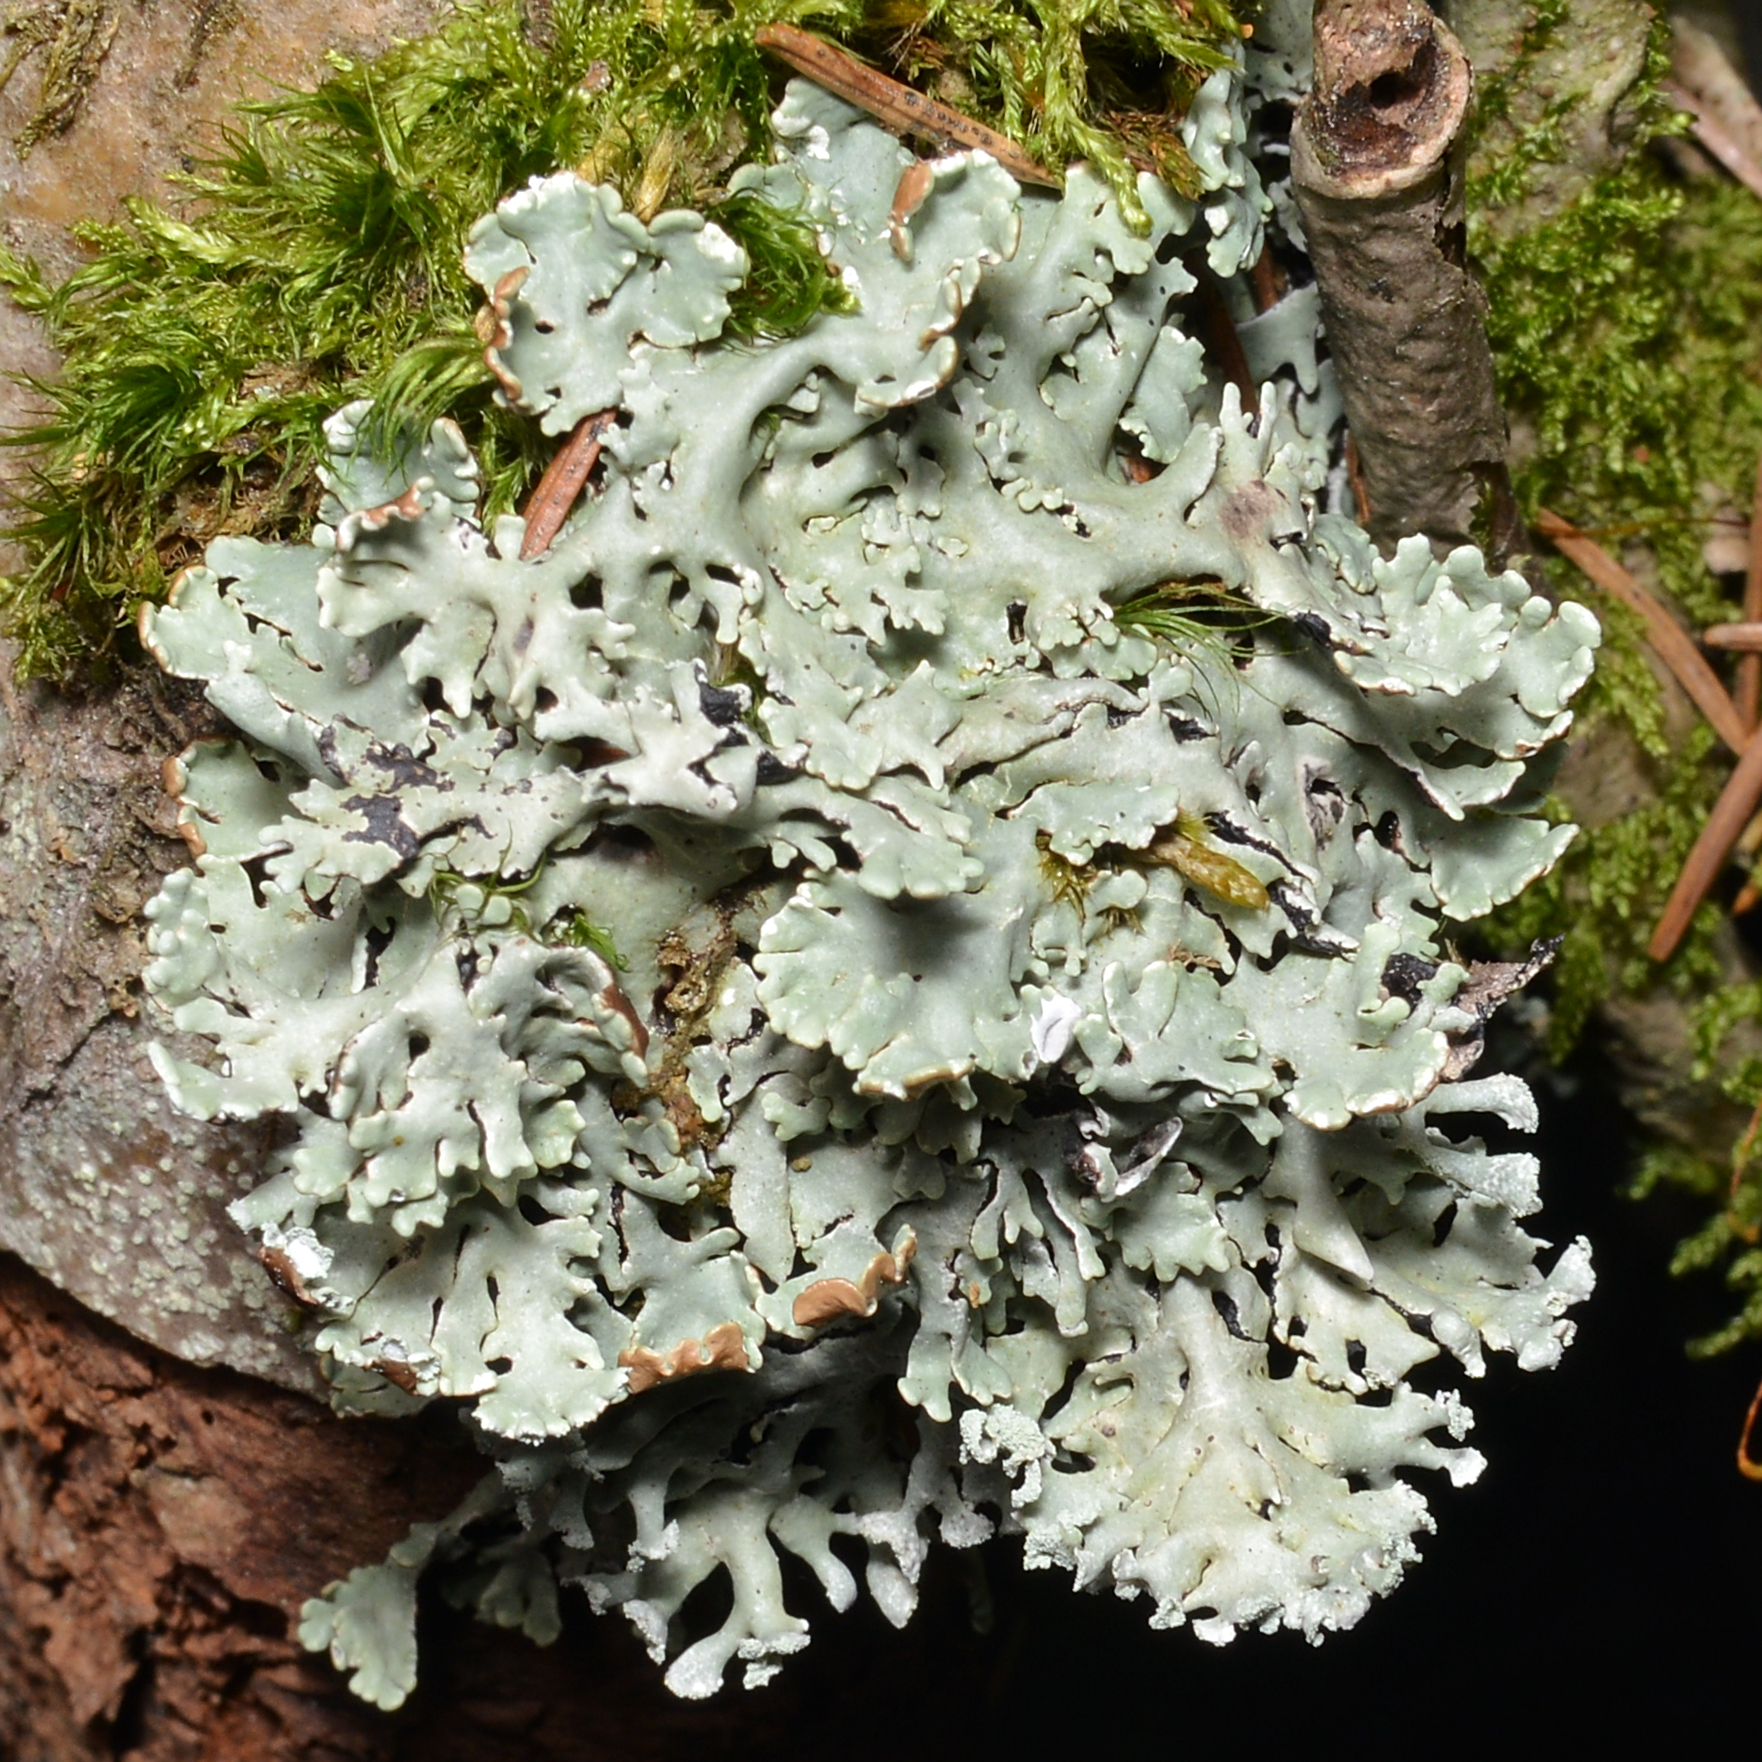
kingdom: Fungi
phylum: Ascomycota
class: Lecanoromycetes
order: Lecanorales
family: Parmeliaceae
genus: Hypogymnia
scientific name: Hypogymnia physodes
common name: Dark crottle
